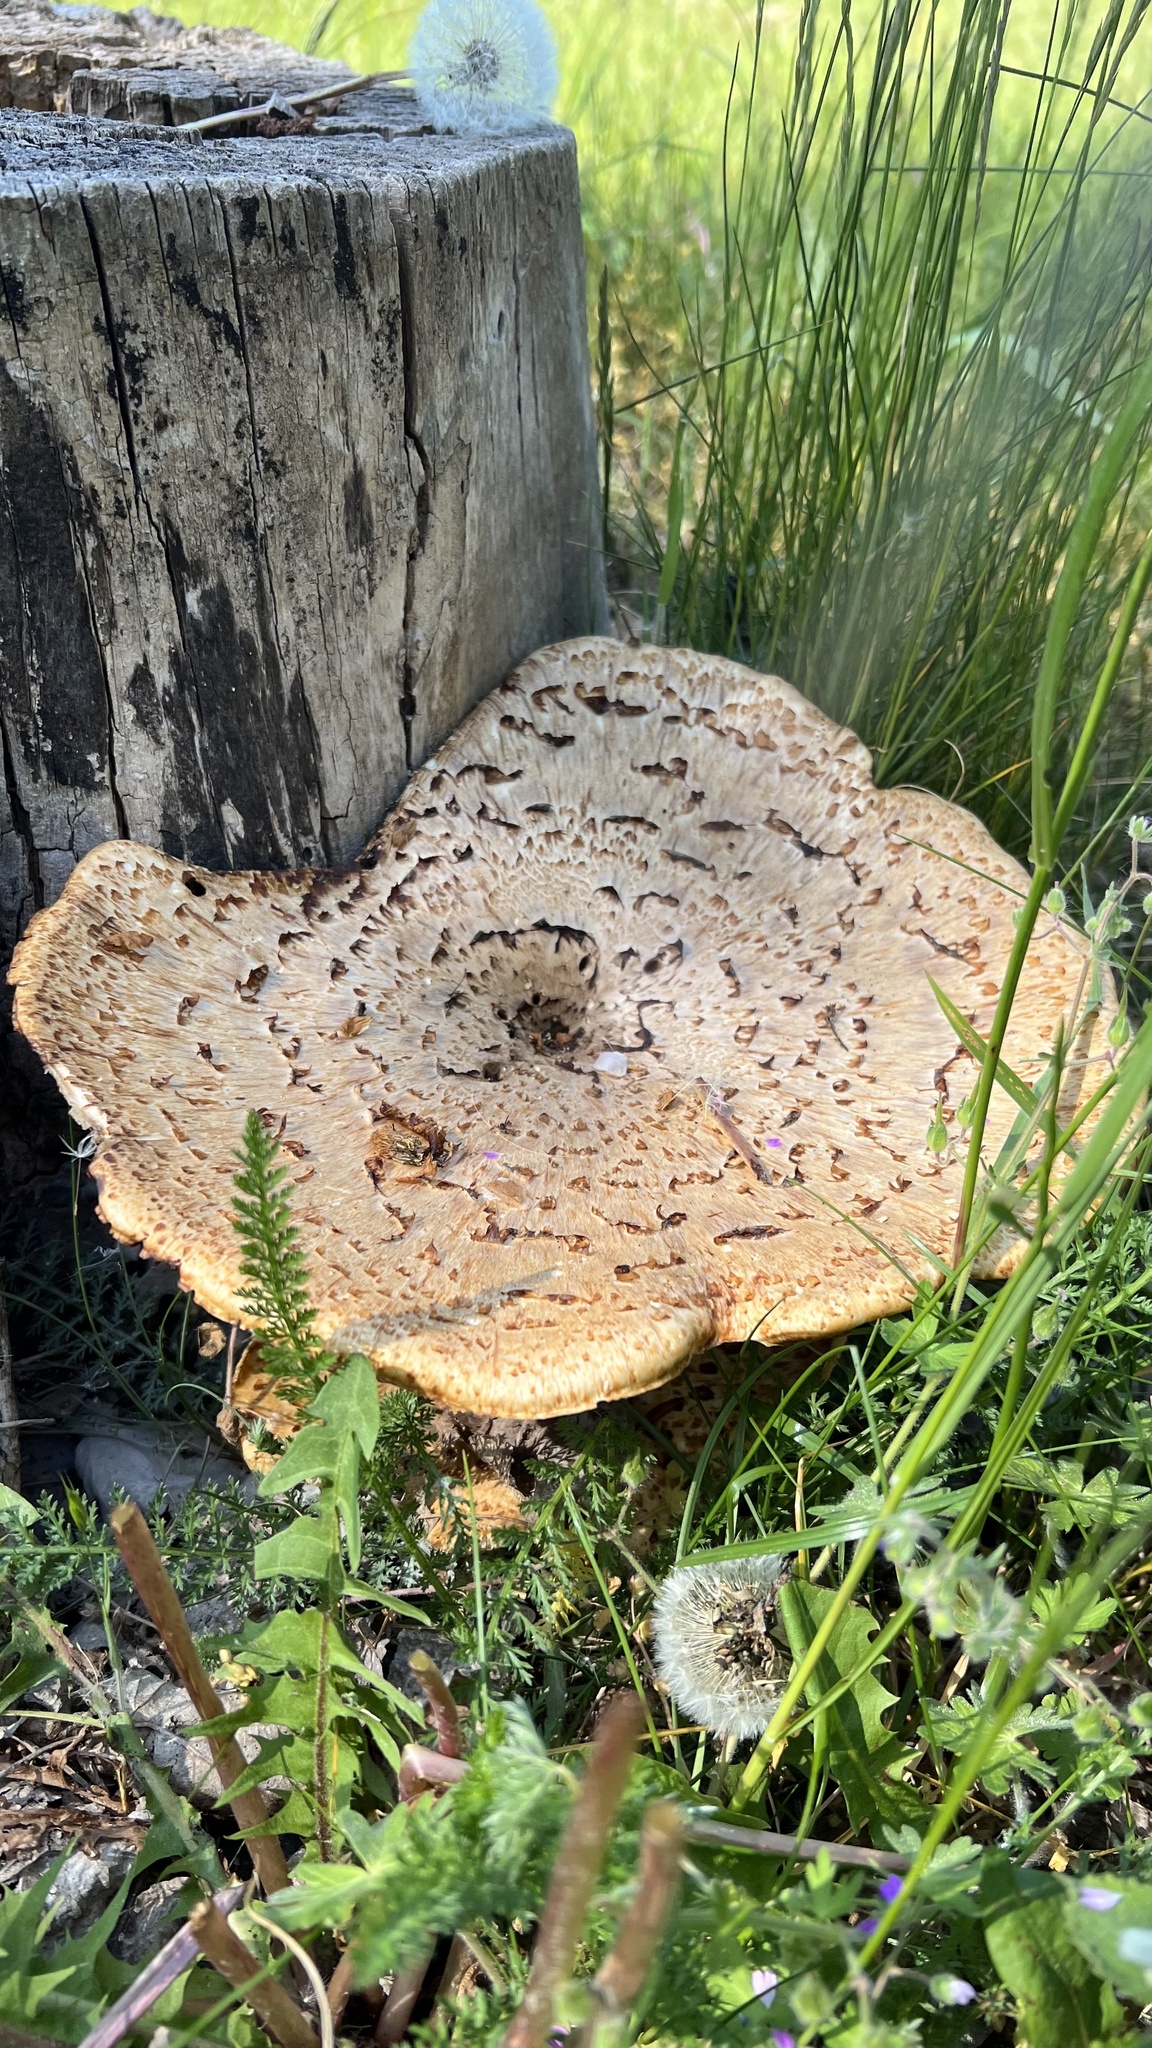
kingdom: Fungi
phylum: Basidiomycota
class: Agaricomycetes
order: Polyporales
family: Polyporaceae
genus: Cerioporus
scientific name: Cerioporus squamosus
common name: Dryad's saddle
